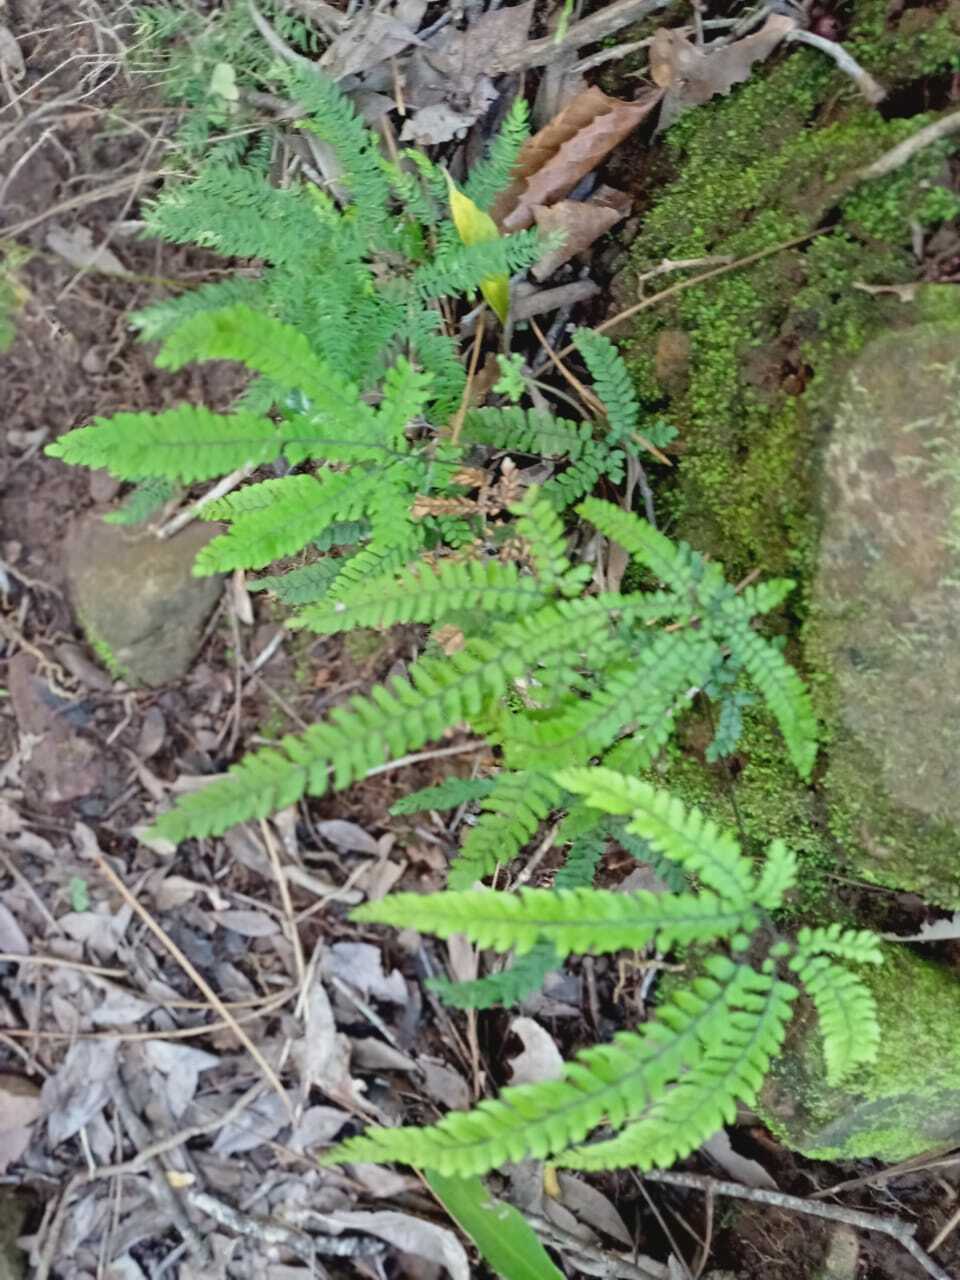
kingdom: Plantae
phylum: Tracheophyta
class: Polypodiopsida
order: Polypodiales
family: Pteridaceae
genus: Adiantum
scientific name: Adiantum hispidulum
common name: Rough maidenhair
